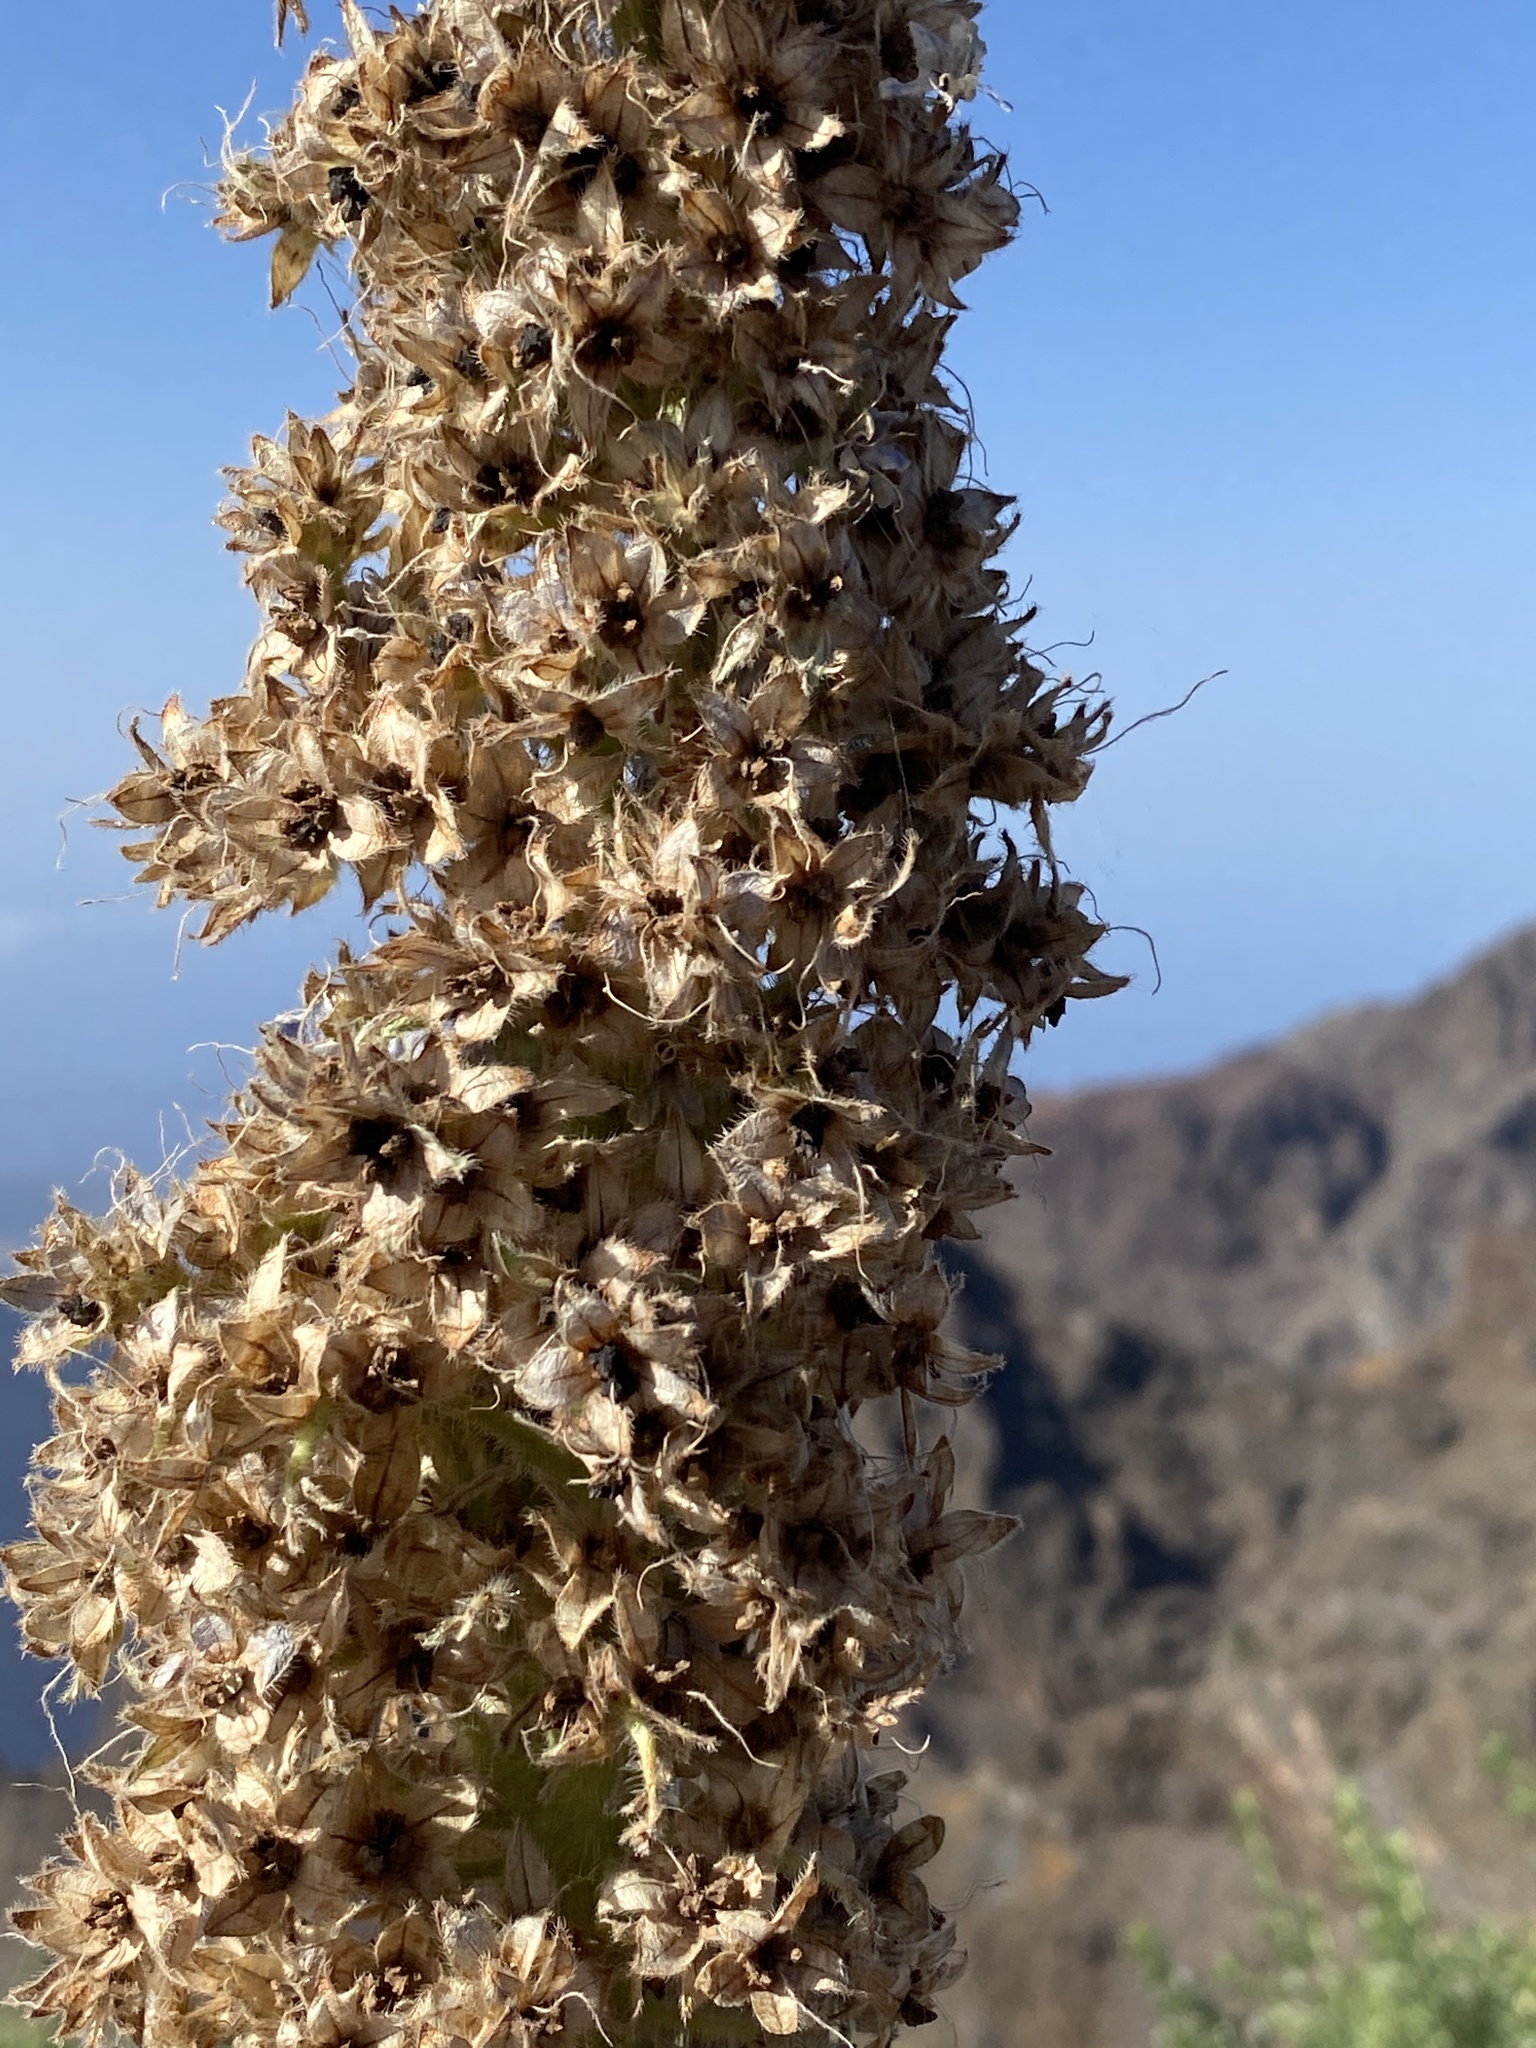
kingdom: Plantae
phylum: Tracheophyta
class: Magnoliopsida
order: Boraginales
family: Boraginaceae
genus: Echium
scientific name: Echium perezii
